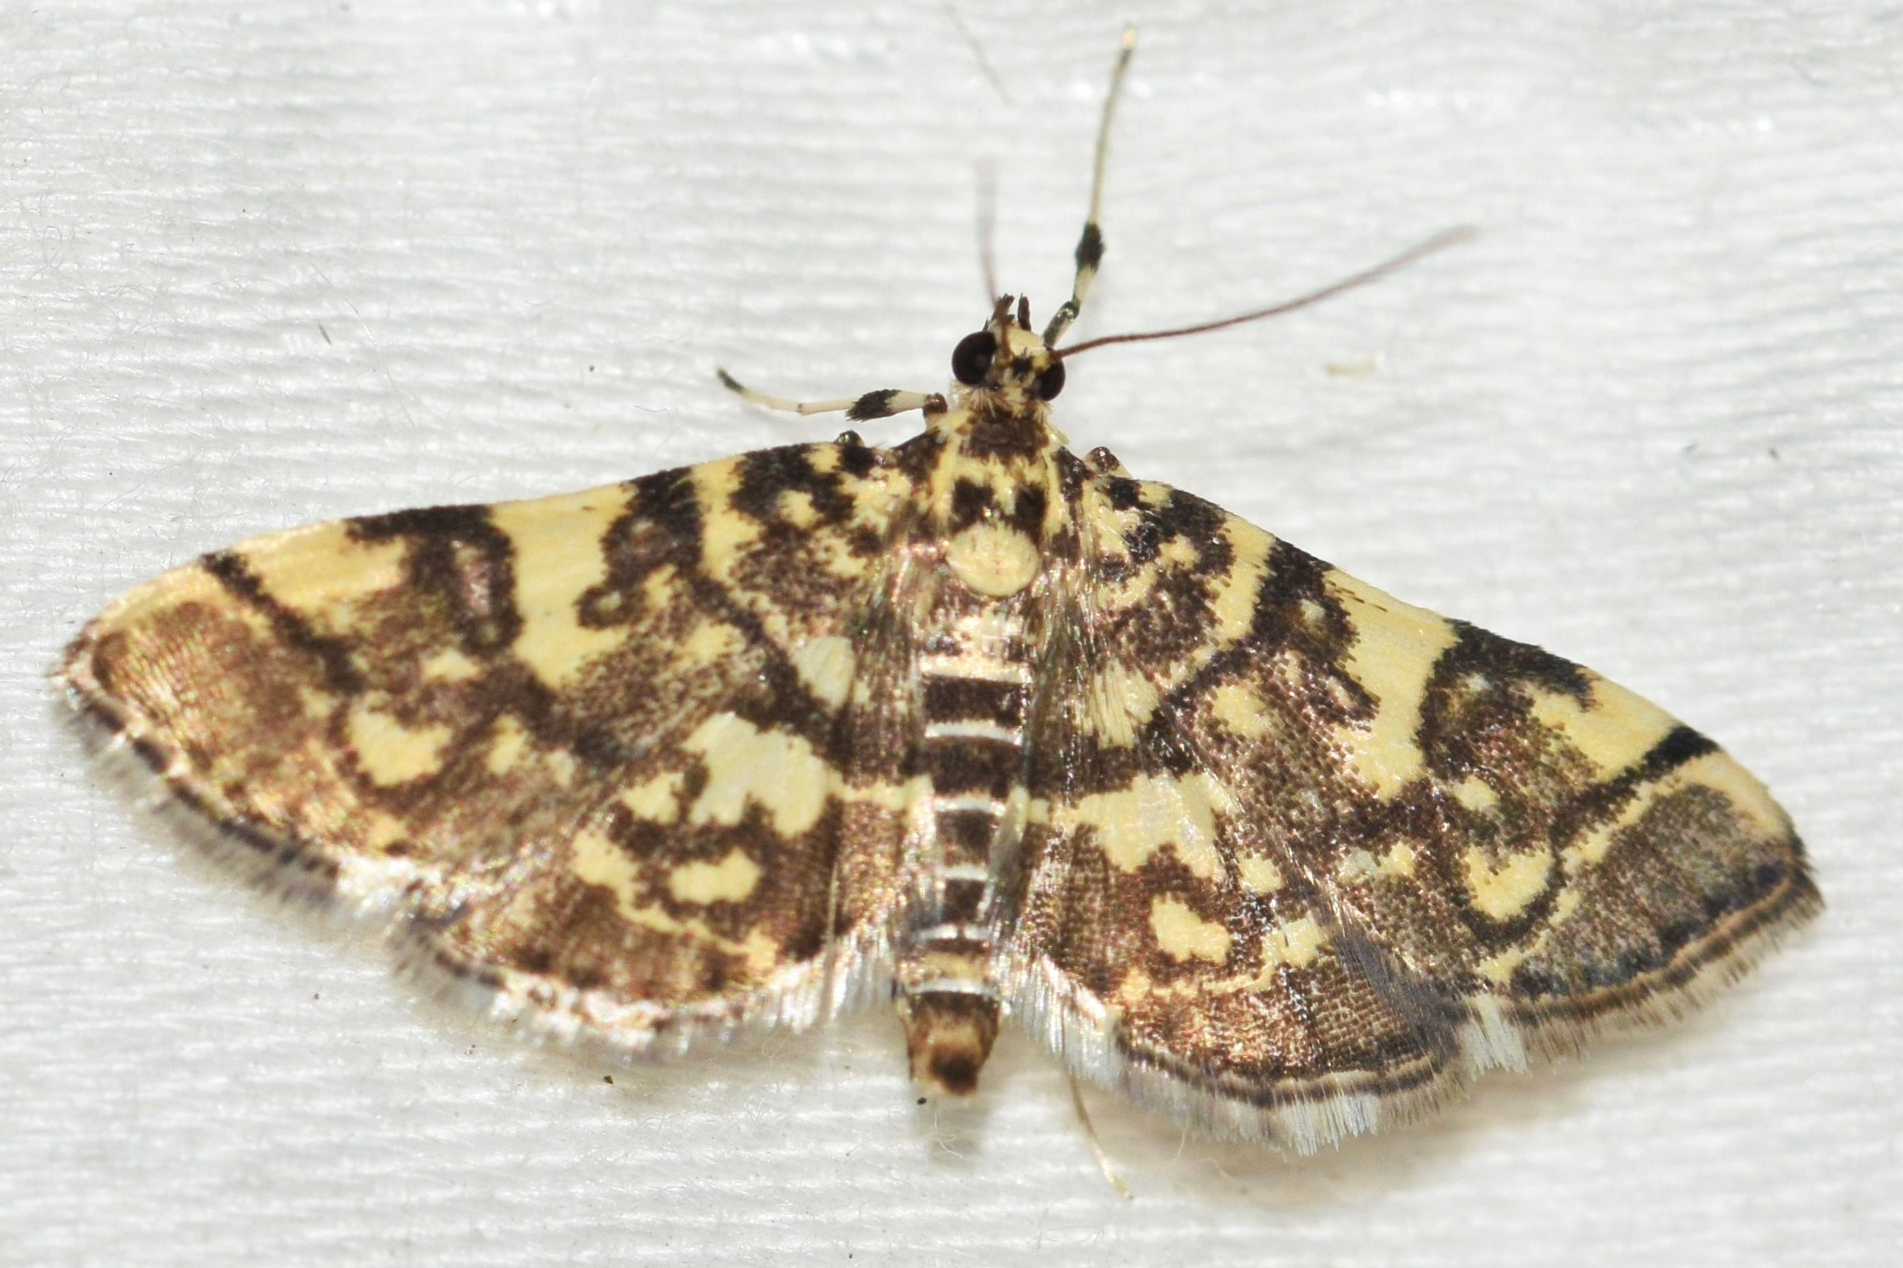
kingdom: Animalia
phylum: Arthropoda
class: Insecta
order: Lepidoptera
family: Crambidae
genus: Apogeshna
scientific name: Apogeshna stenialis
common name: Checkered apogeshna moth
